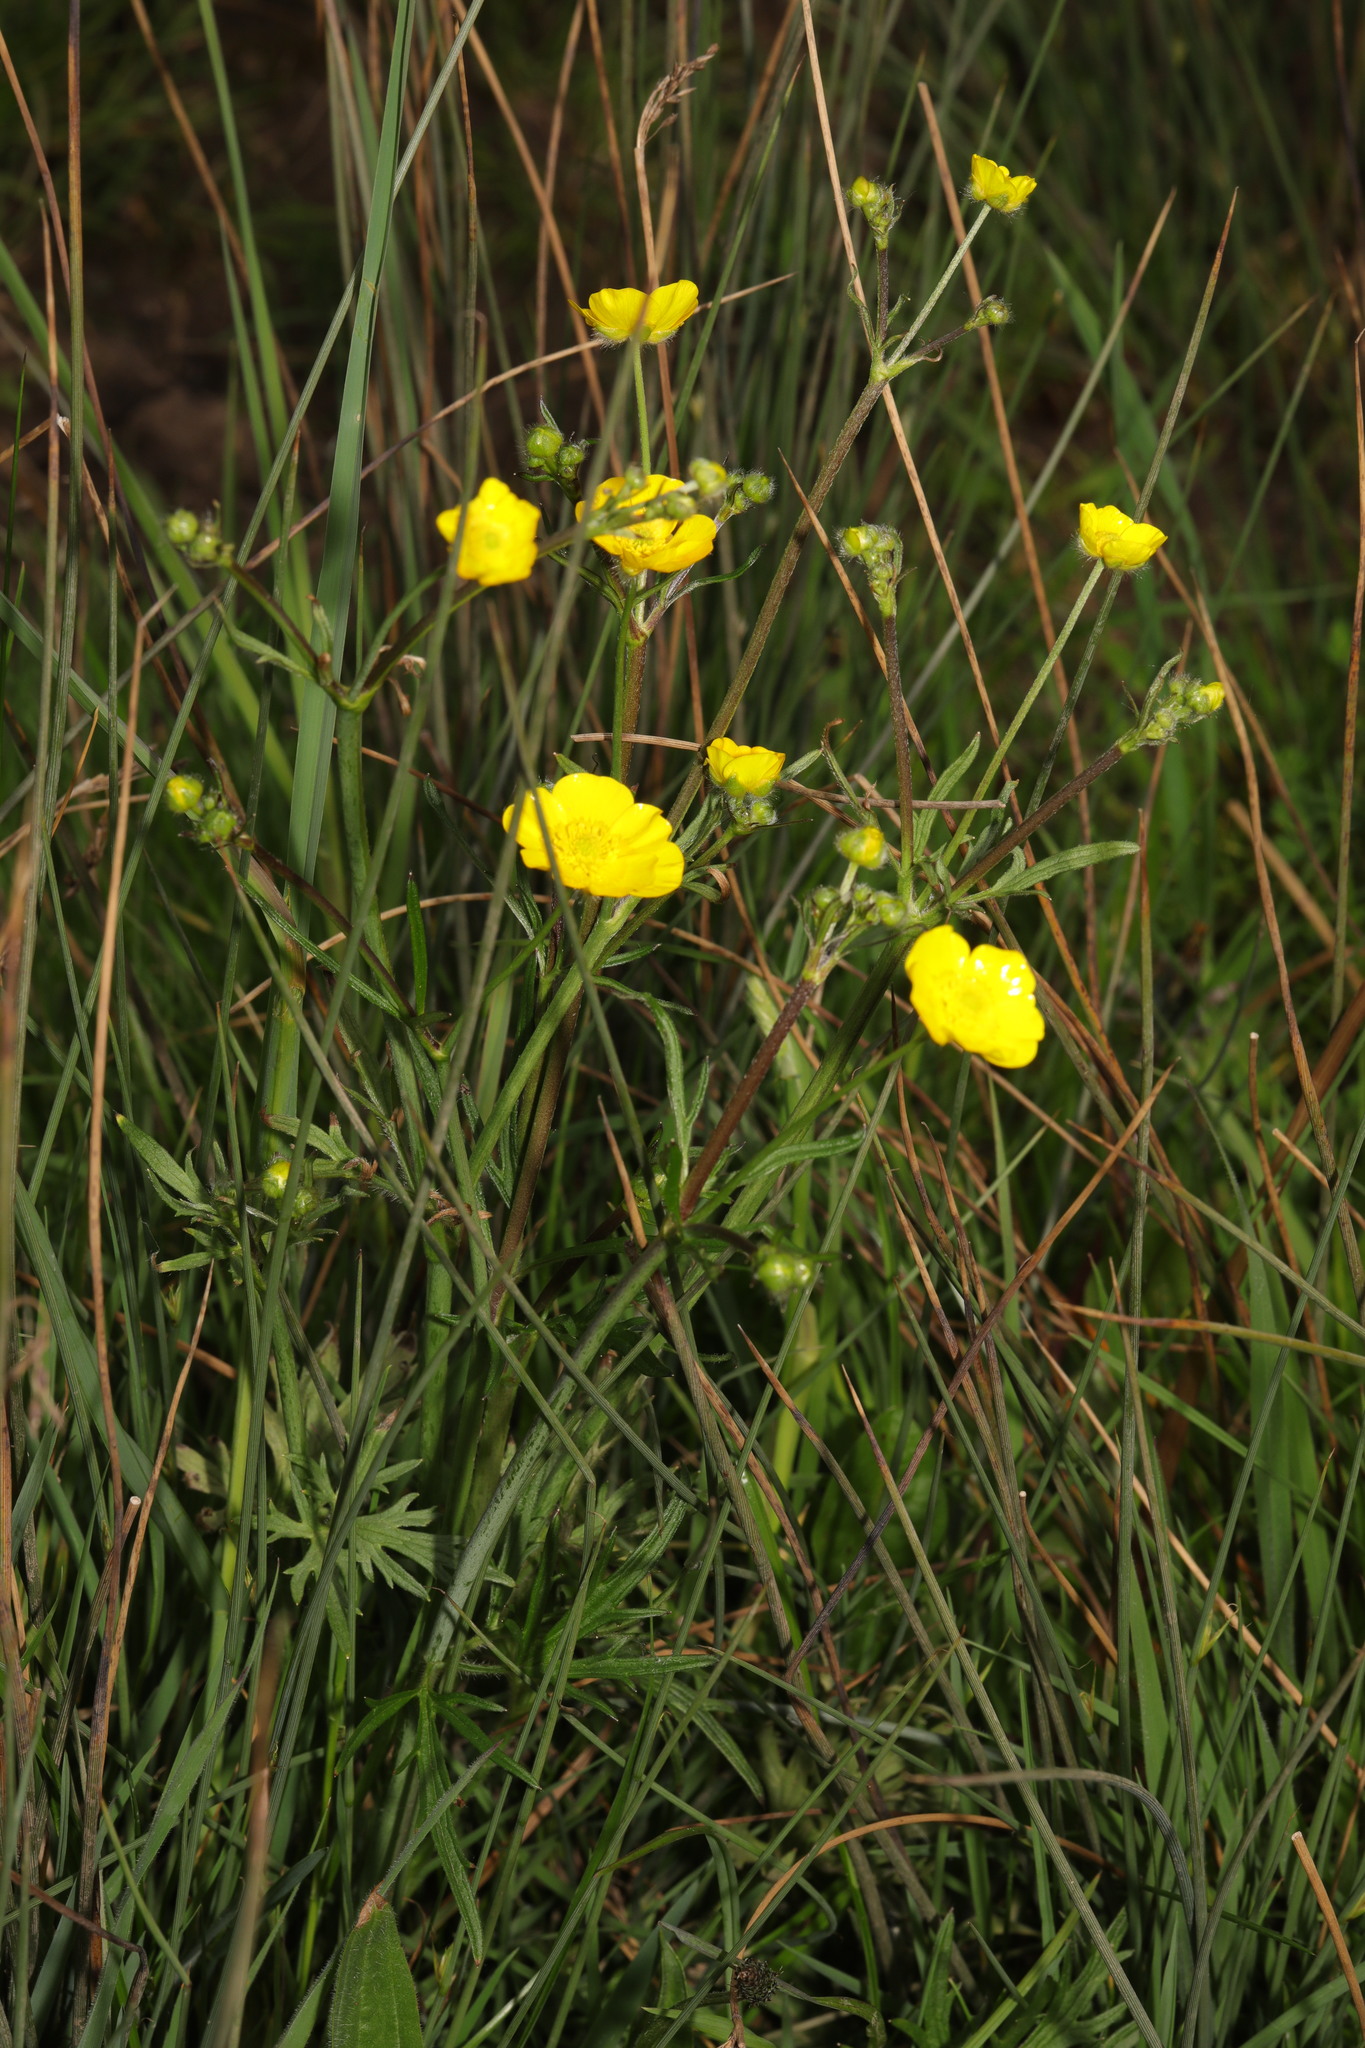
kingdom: Plantae
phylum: Tracheophyta
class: Magnoliopsida
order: Ranunculales
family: Ranunculaceae
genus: Ranunculus
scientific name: Ranunculus acris
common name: Meadow buttercup
